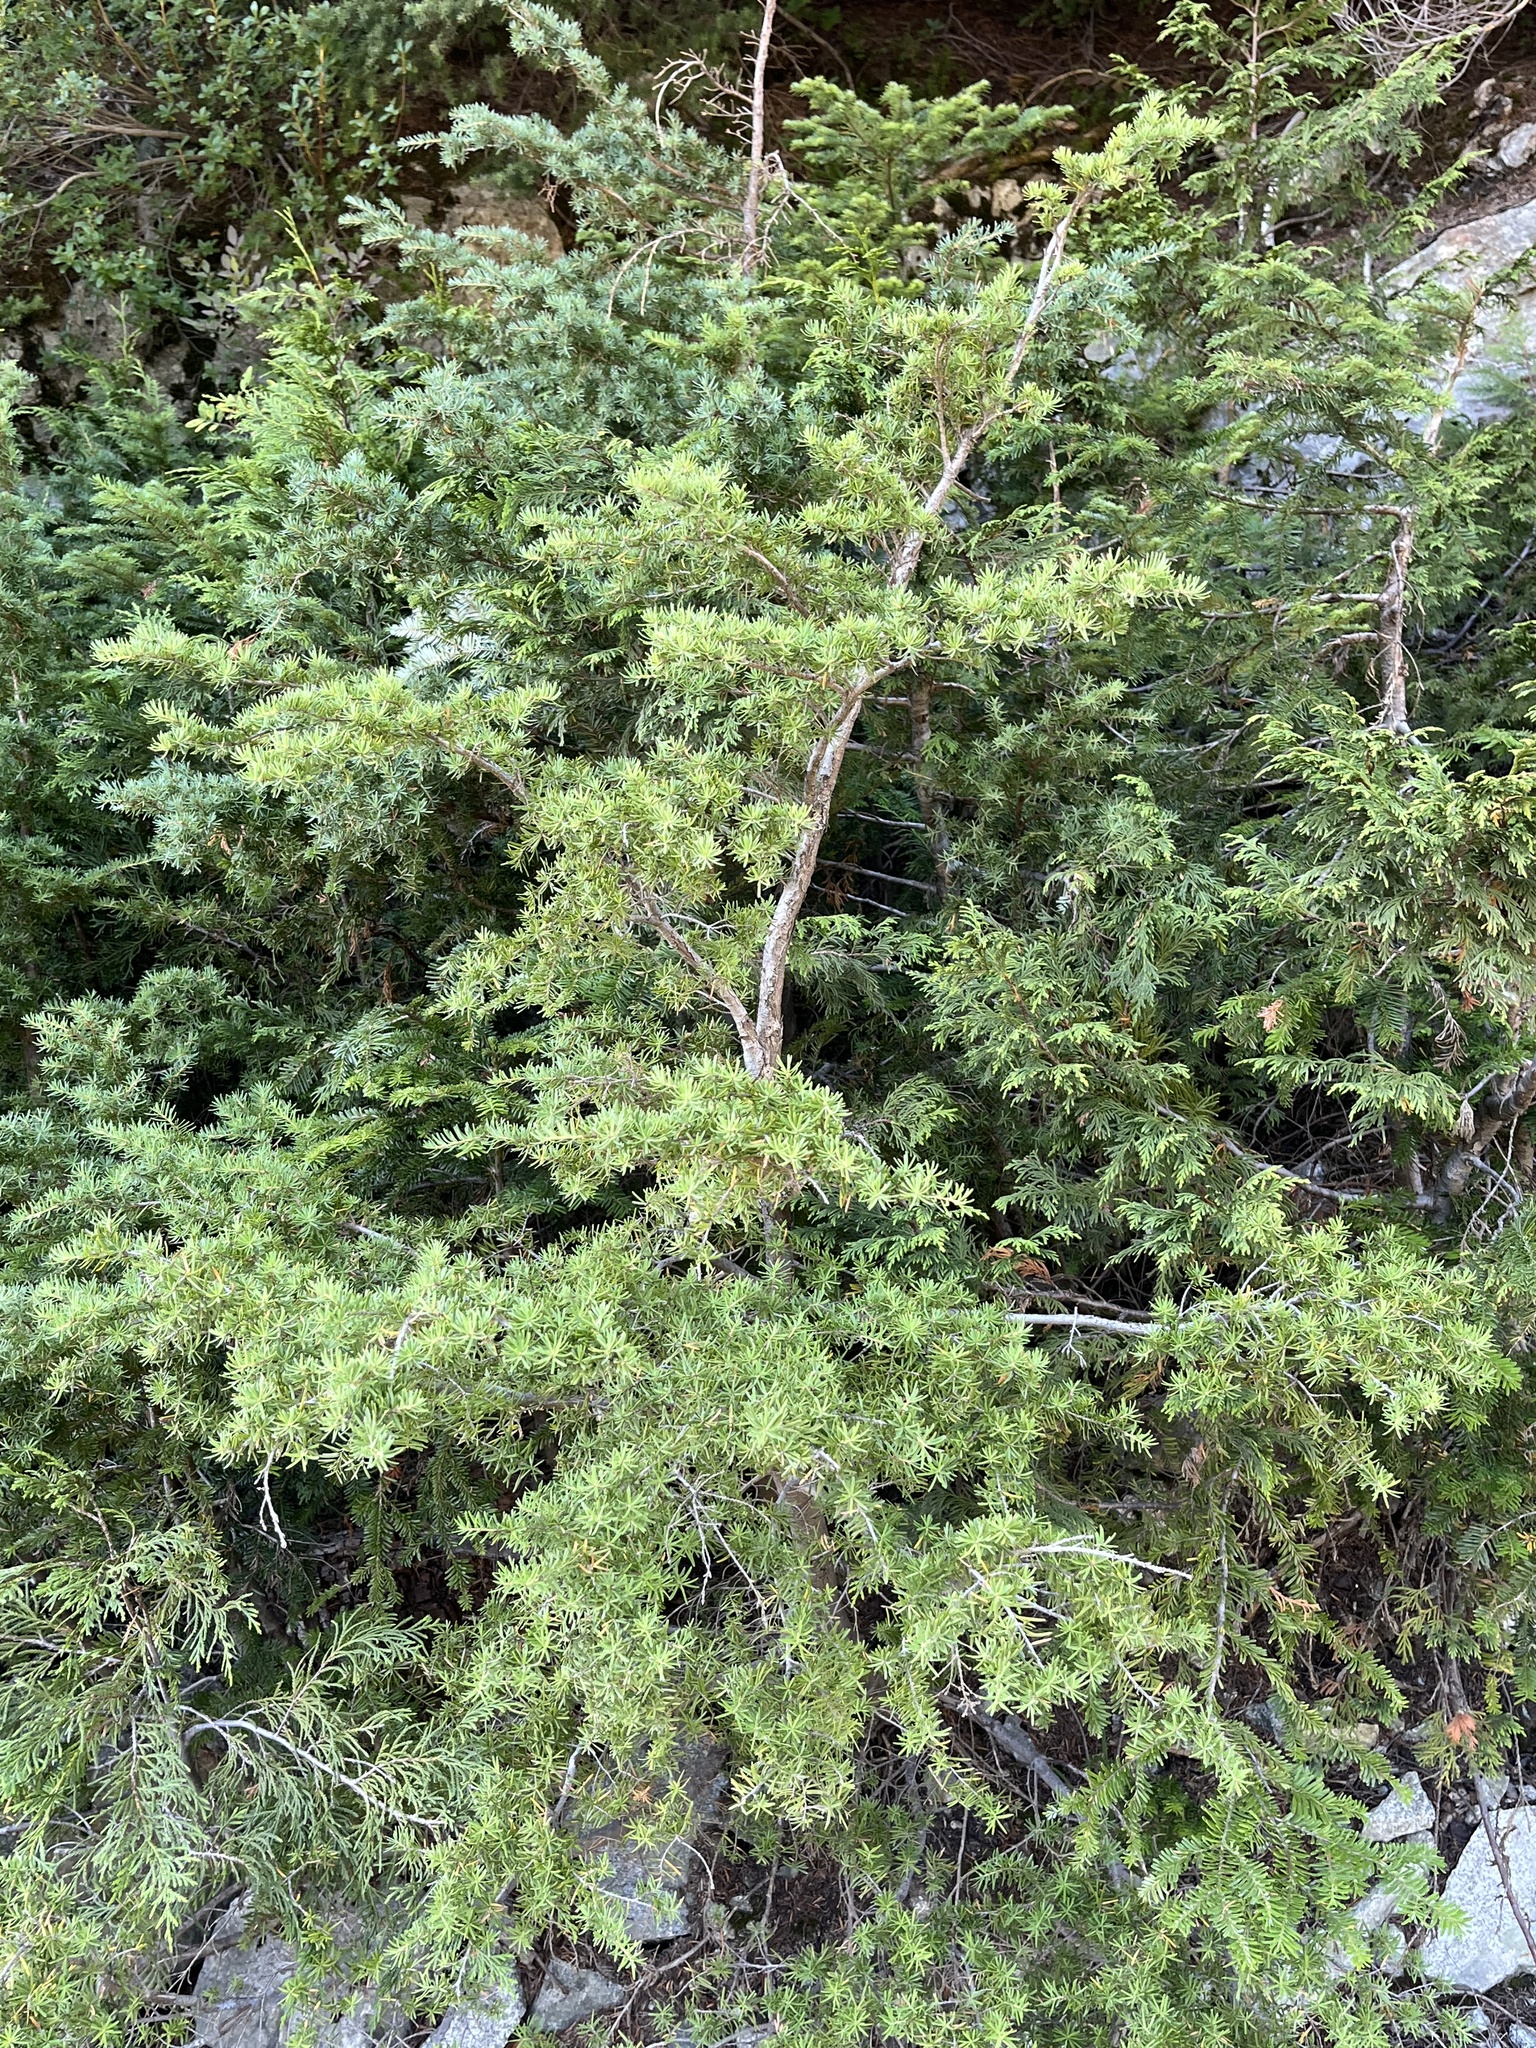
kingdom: Plantae
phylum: Tracheophyta
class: Pinopsida
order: Pinales
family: Pinaceae
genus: Tsuga
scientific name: Tsuga mertensiana
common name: Mountain hemlock
